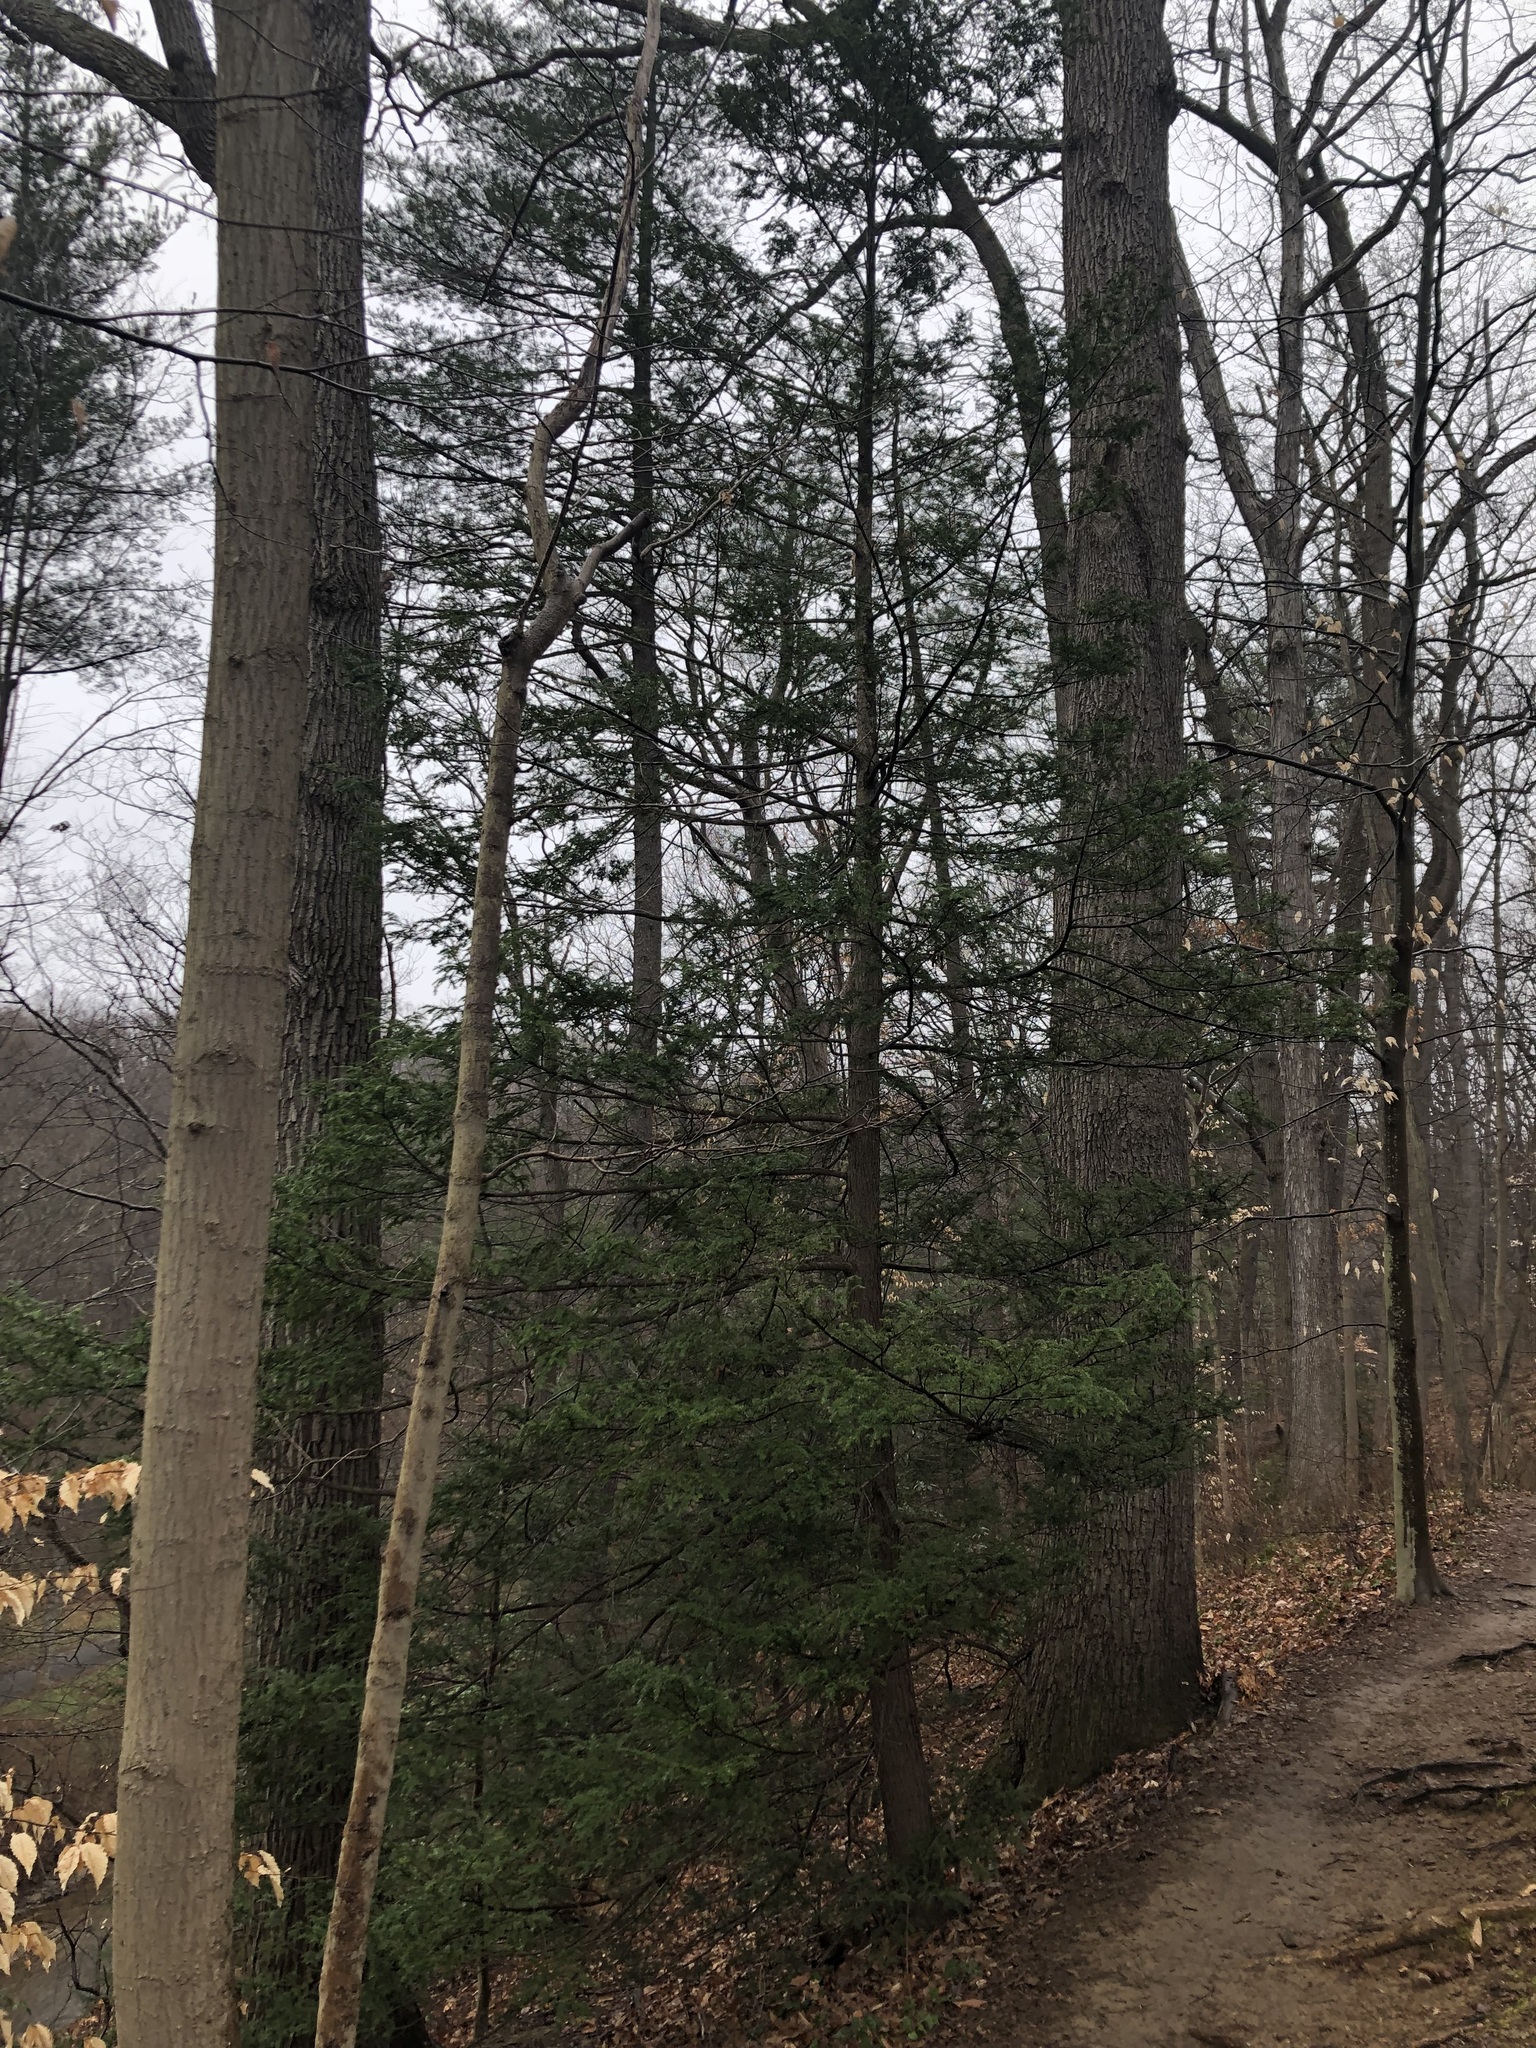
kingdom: Plantae
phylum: Tracheophyta
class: Pinopsida
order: Pinales
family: Pinaceae
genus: Tsuga
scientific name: Tsuga canadensis
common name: Eastern hemlock
